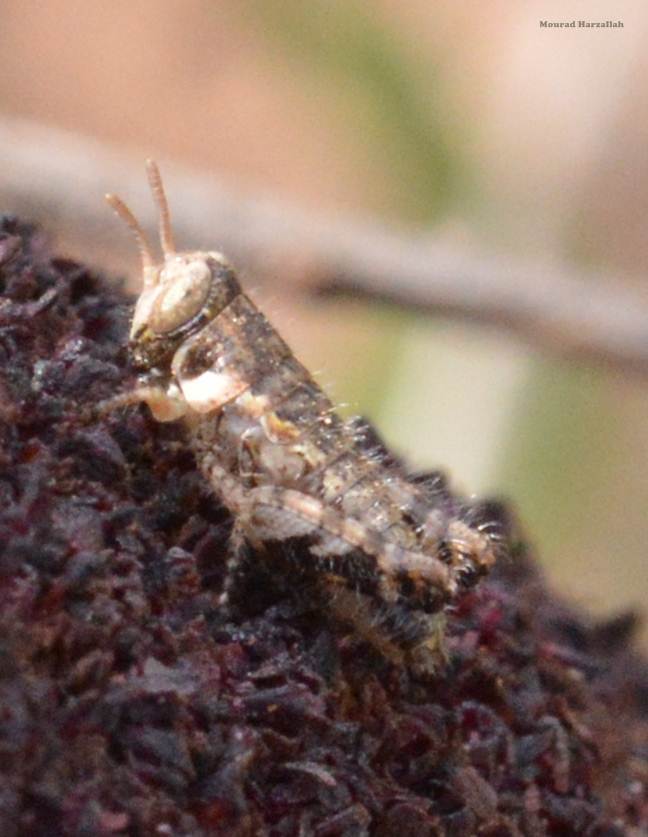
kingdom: Animalia
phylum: Arthropoda
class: Insecta
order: Orthoptera
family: Acrididae
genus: Pezotettix
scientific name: Pezotettix giornae
